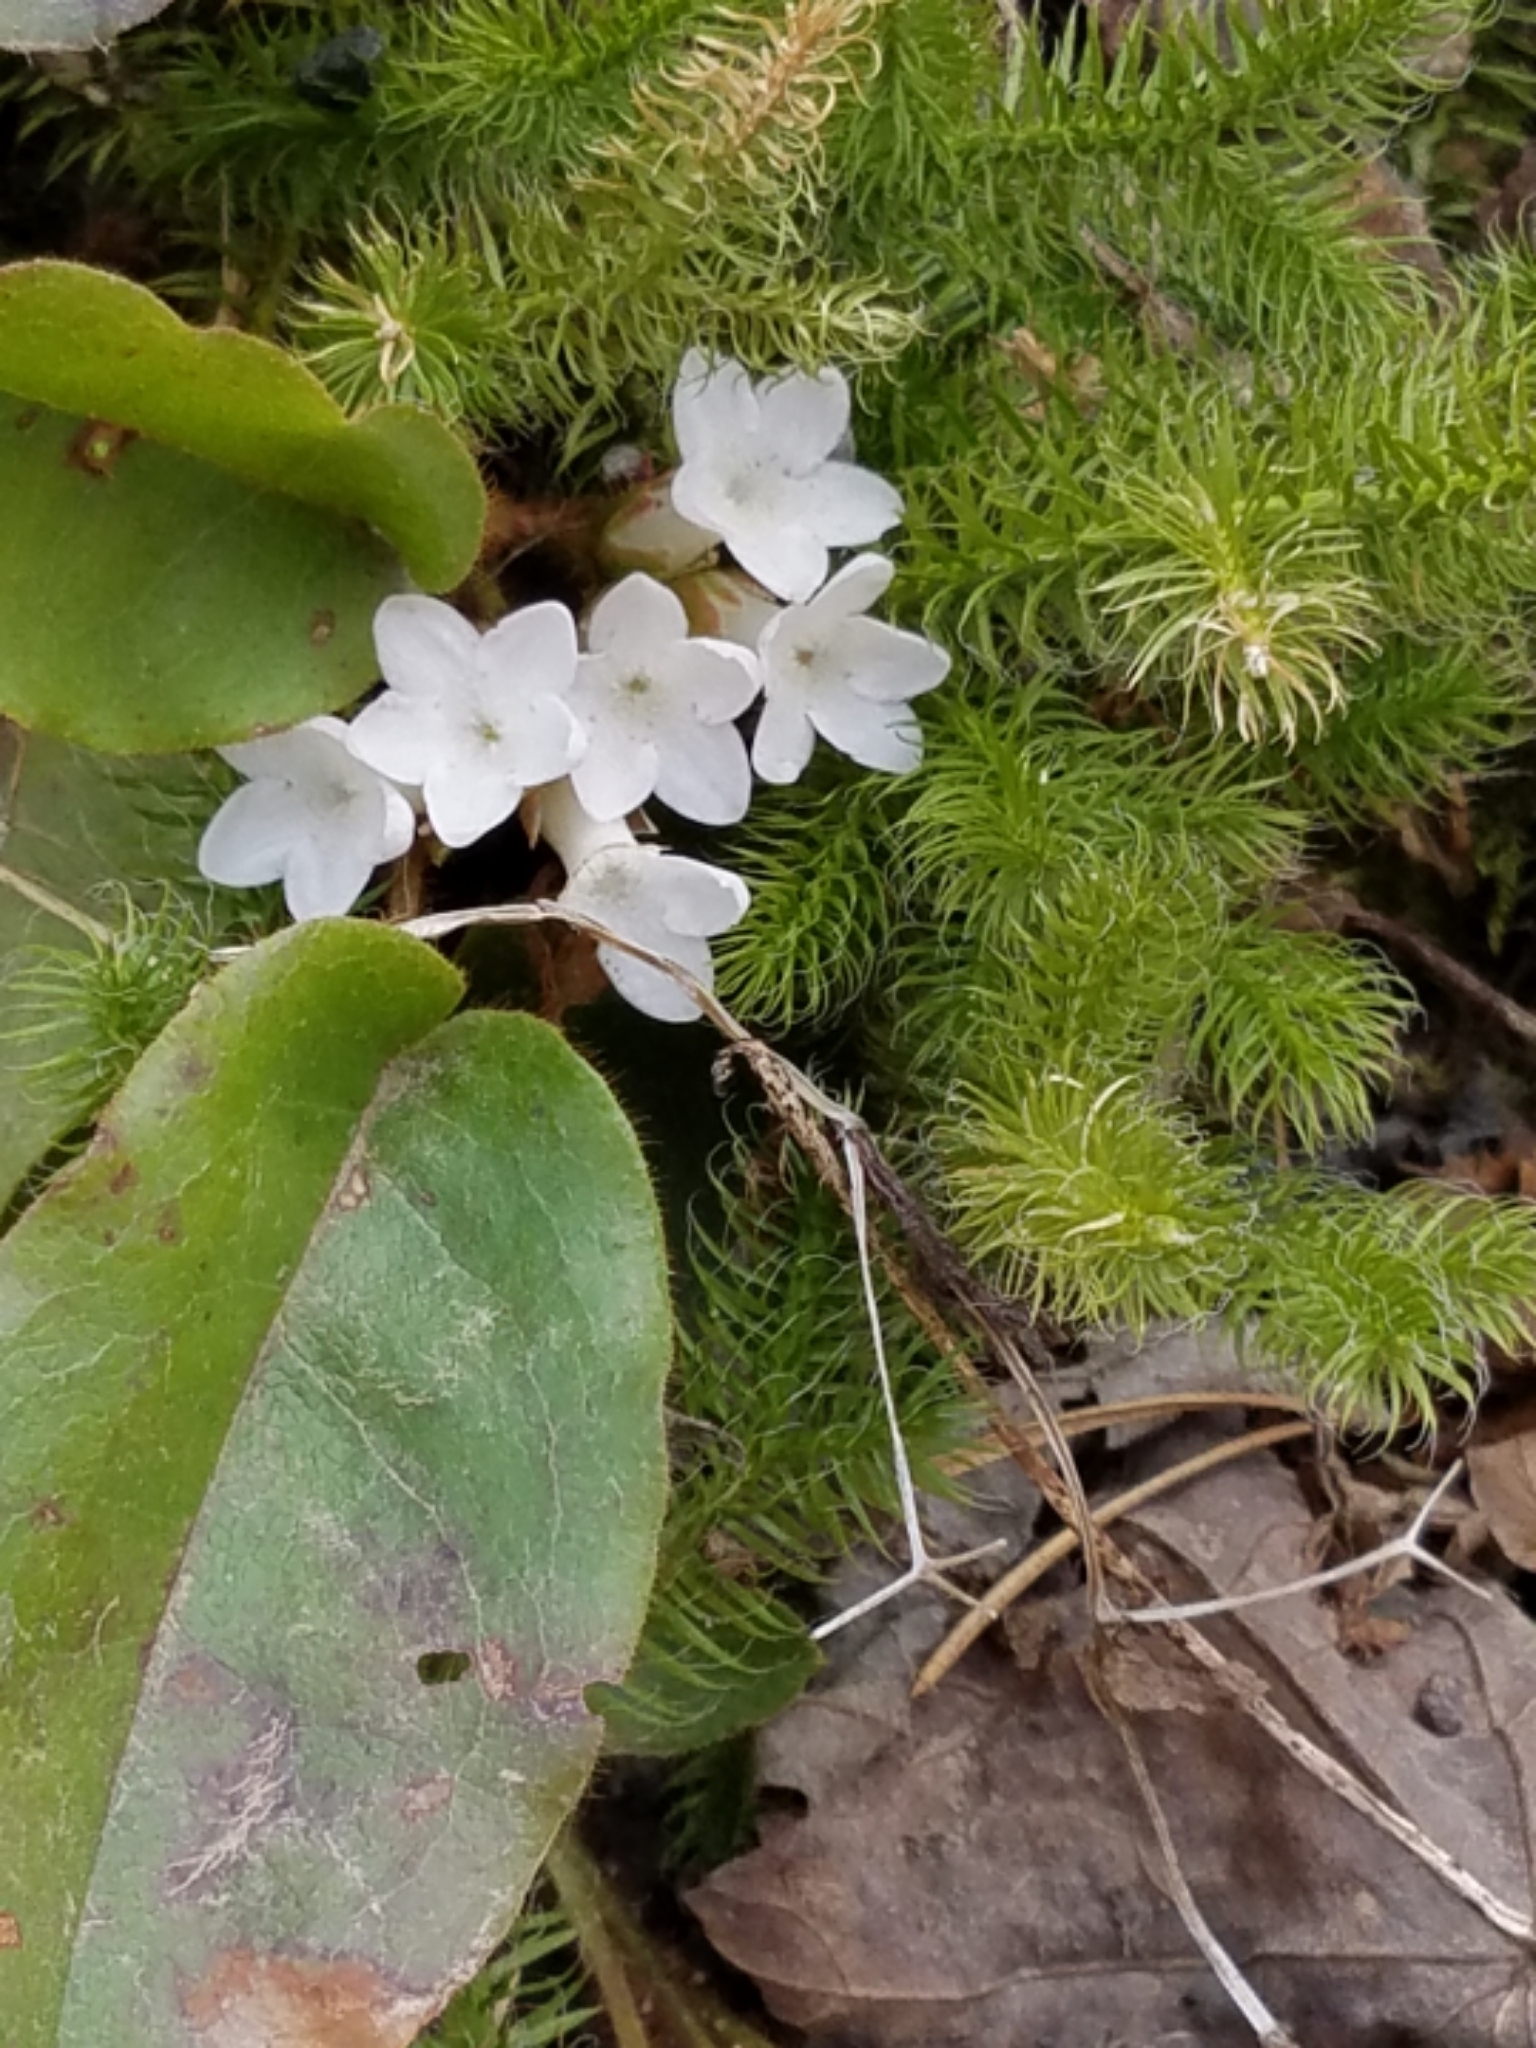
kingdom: Plantae
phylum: Tracheophyta
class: Magnoliopsida
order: Ericales
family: Ericaceae
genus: Epigaea
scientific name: Epigaea repens
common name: Gravelroot
